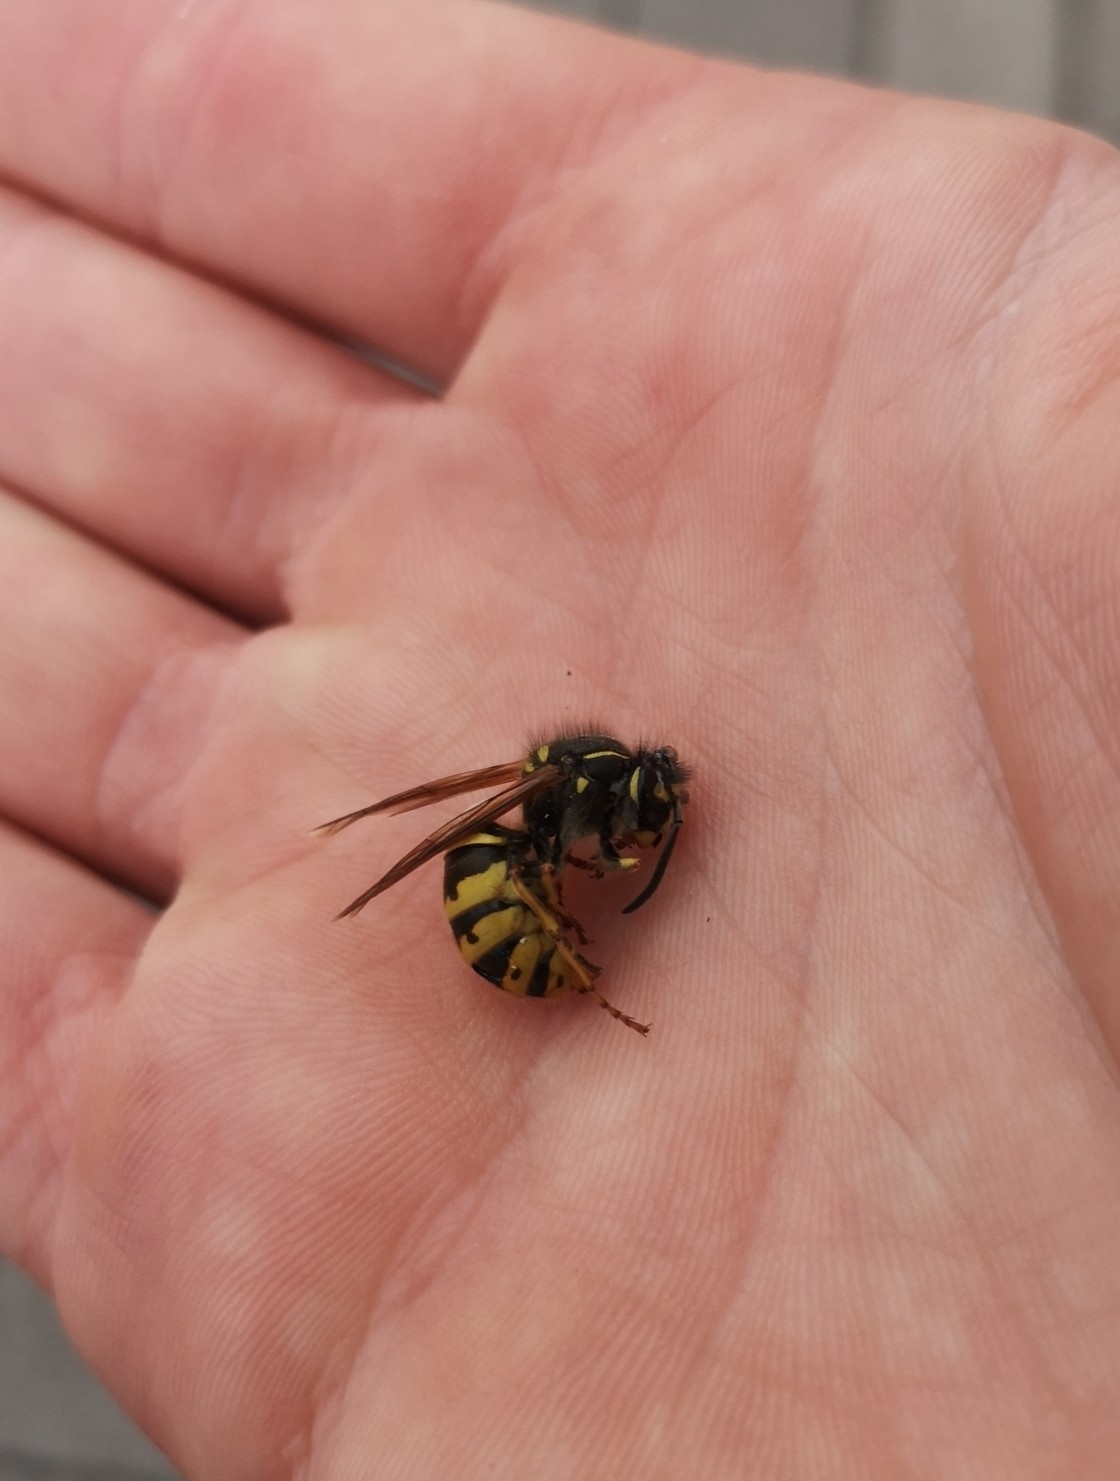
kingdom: Animalia
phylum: Arthropoda
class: Insecta
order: Hymenoptera
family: Vespidae
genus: Vespula
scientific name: Vespula vulgaris
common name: Common wasp
